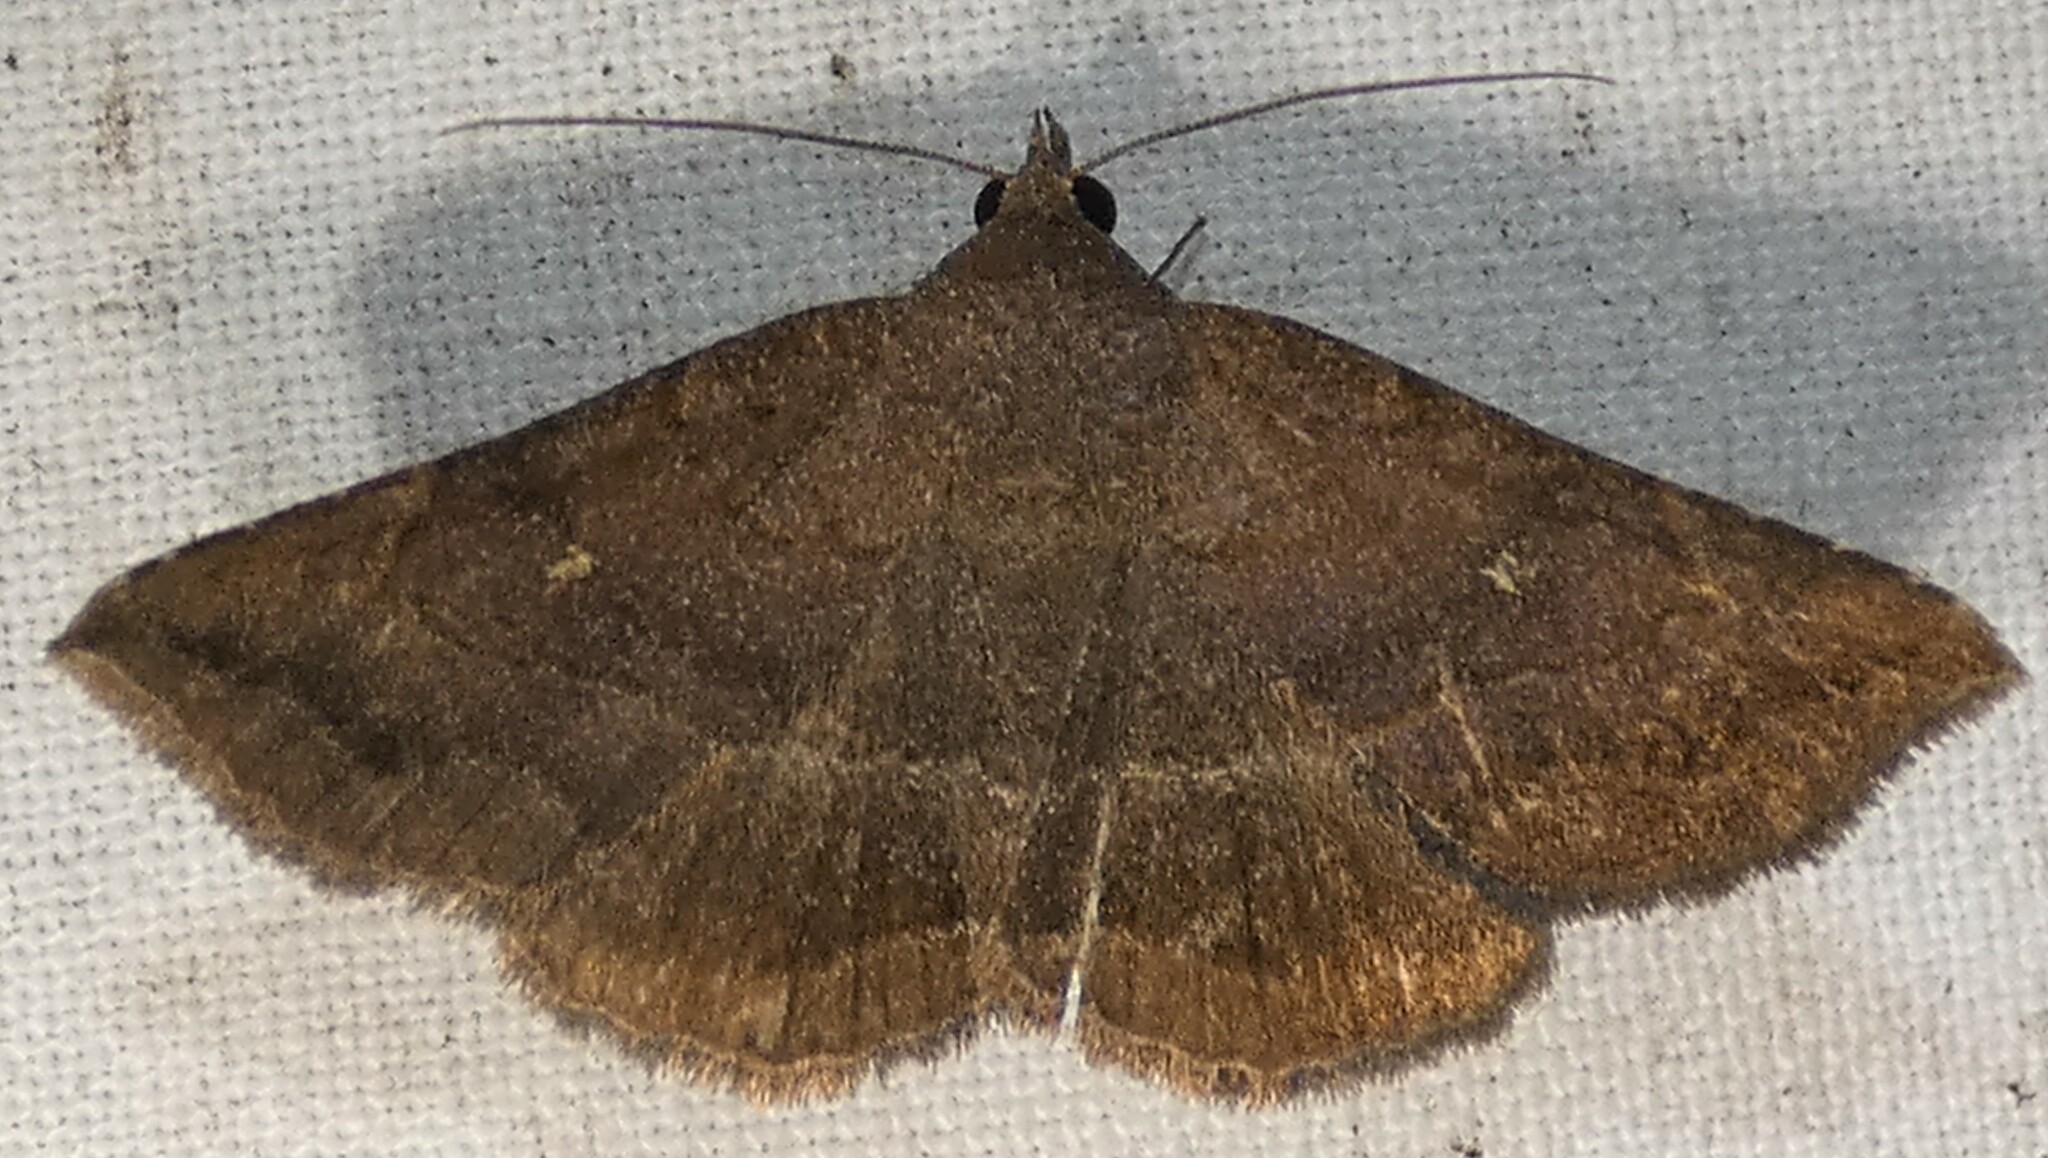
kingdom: Animalia
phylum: Arthropoda
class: Insecta
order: Lepidoptera
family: Erebidae
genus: Lesmone
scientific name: Lesmone detrahens
